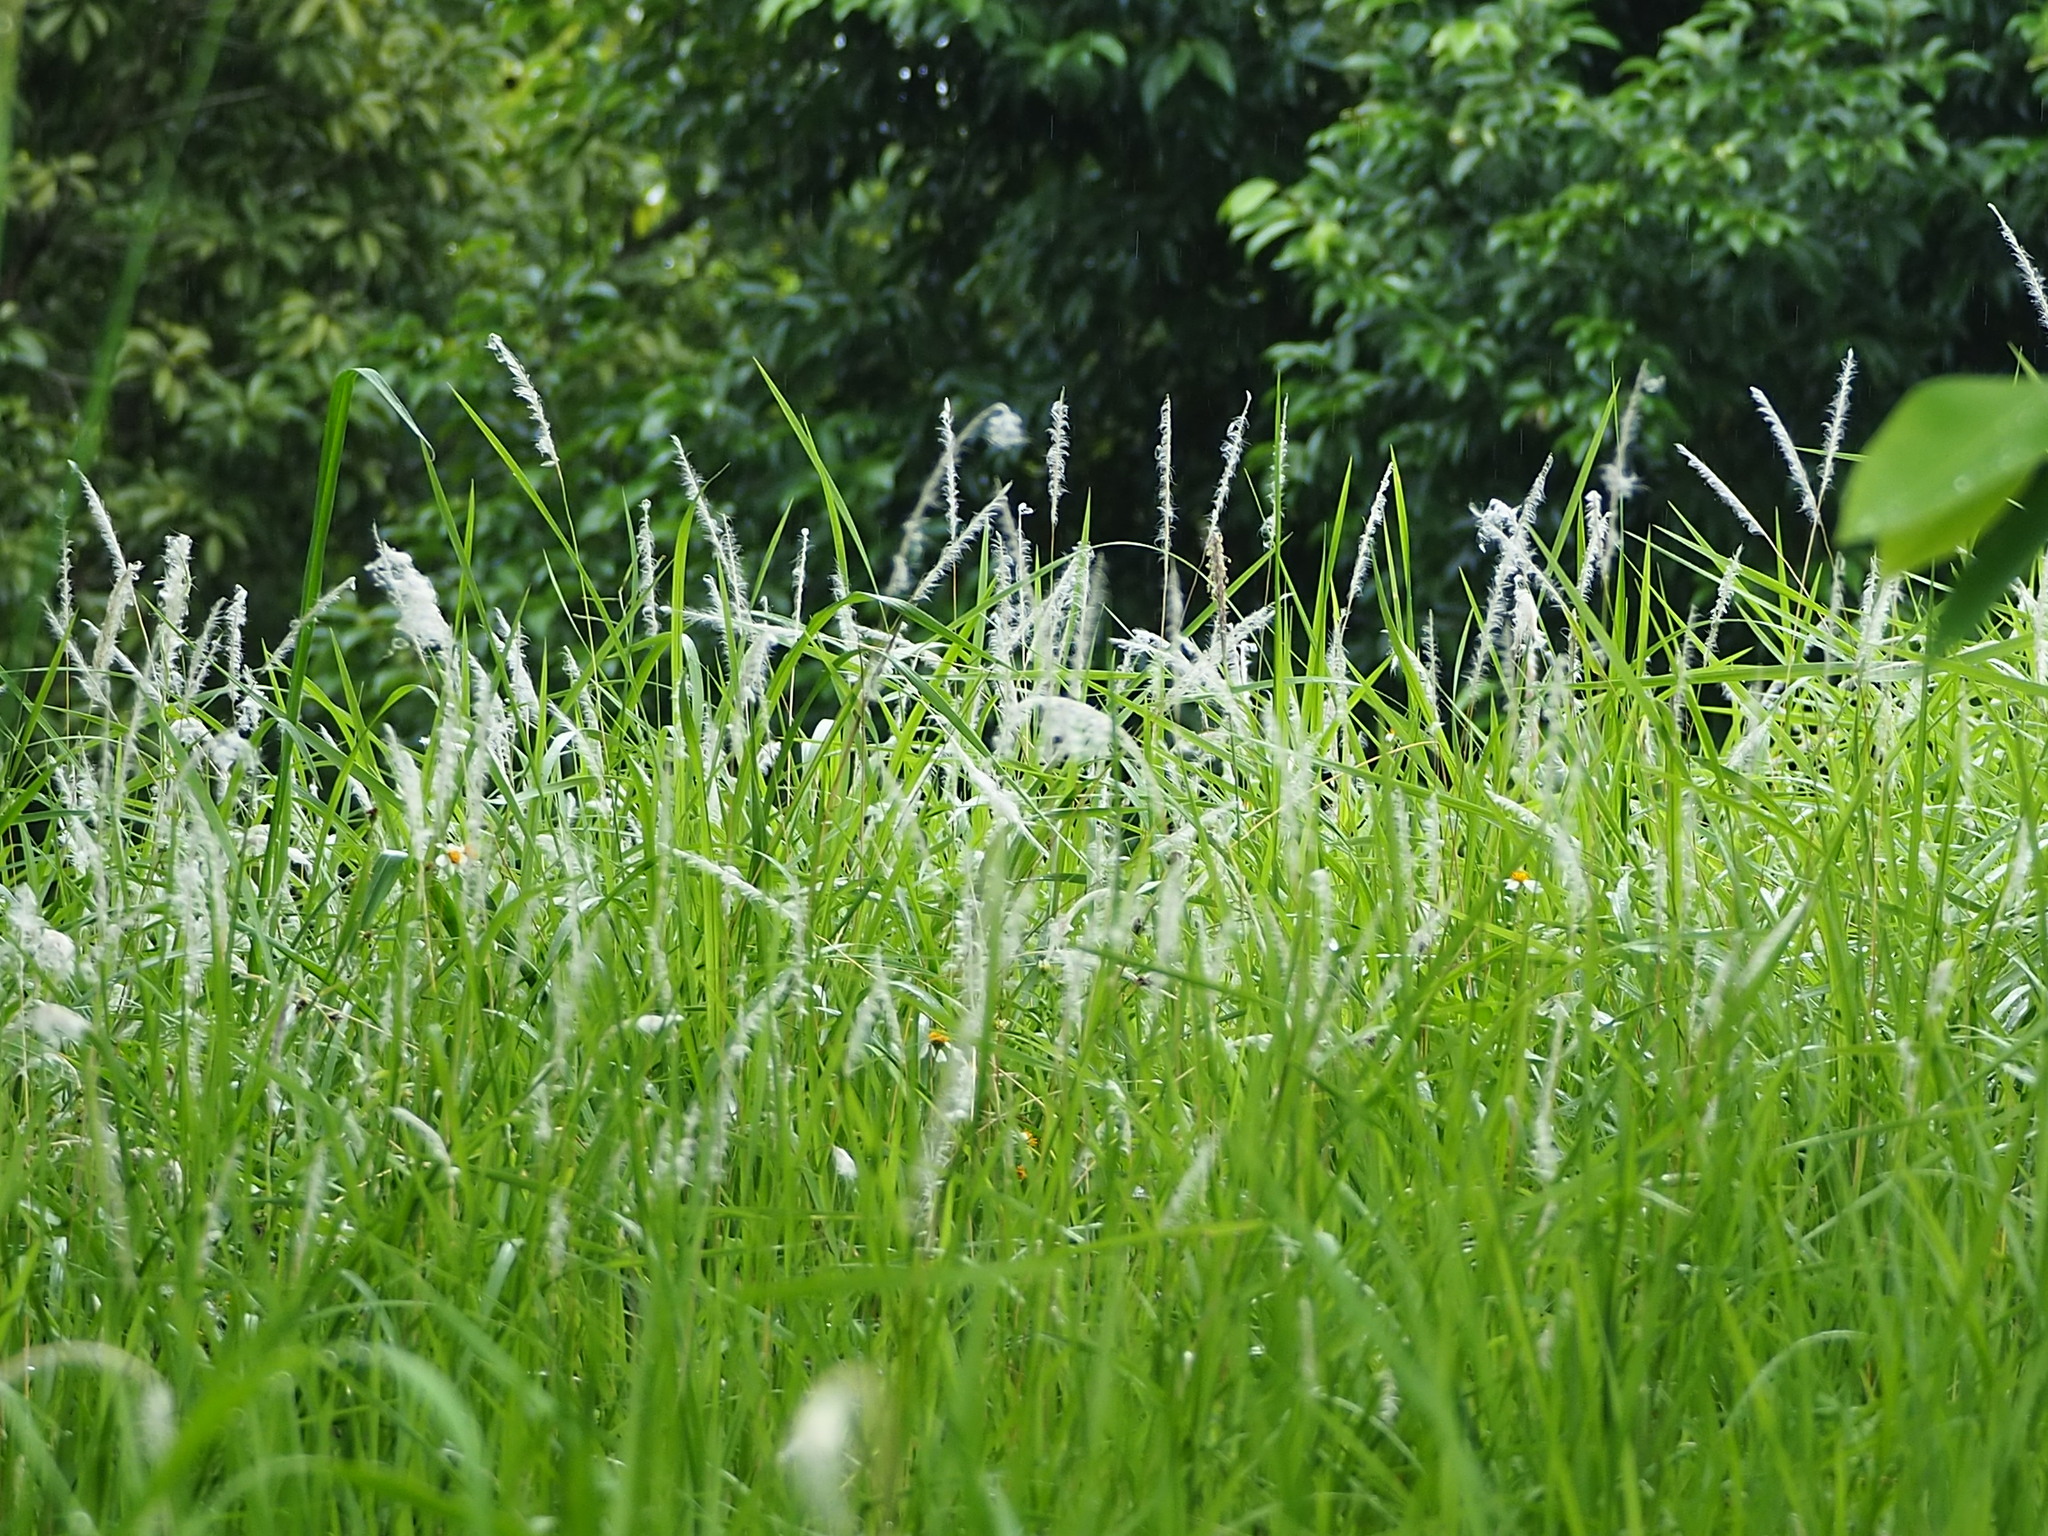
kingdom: Plantae
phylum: Tracheophyta
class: Liliopsida
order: Poales
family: Poaceae
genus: Imperata
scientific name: Imperata cylindrica
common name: Cogongrass
